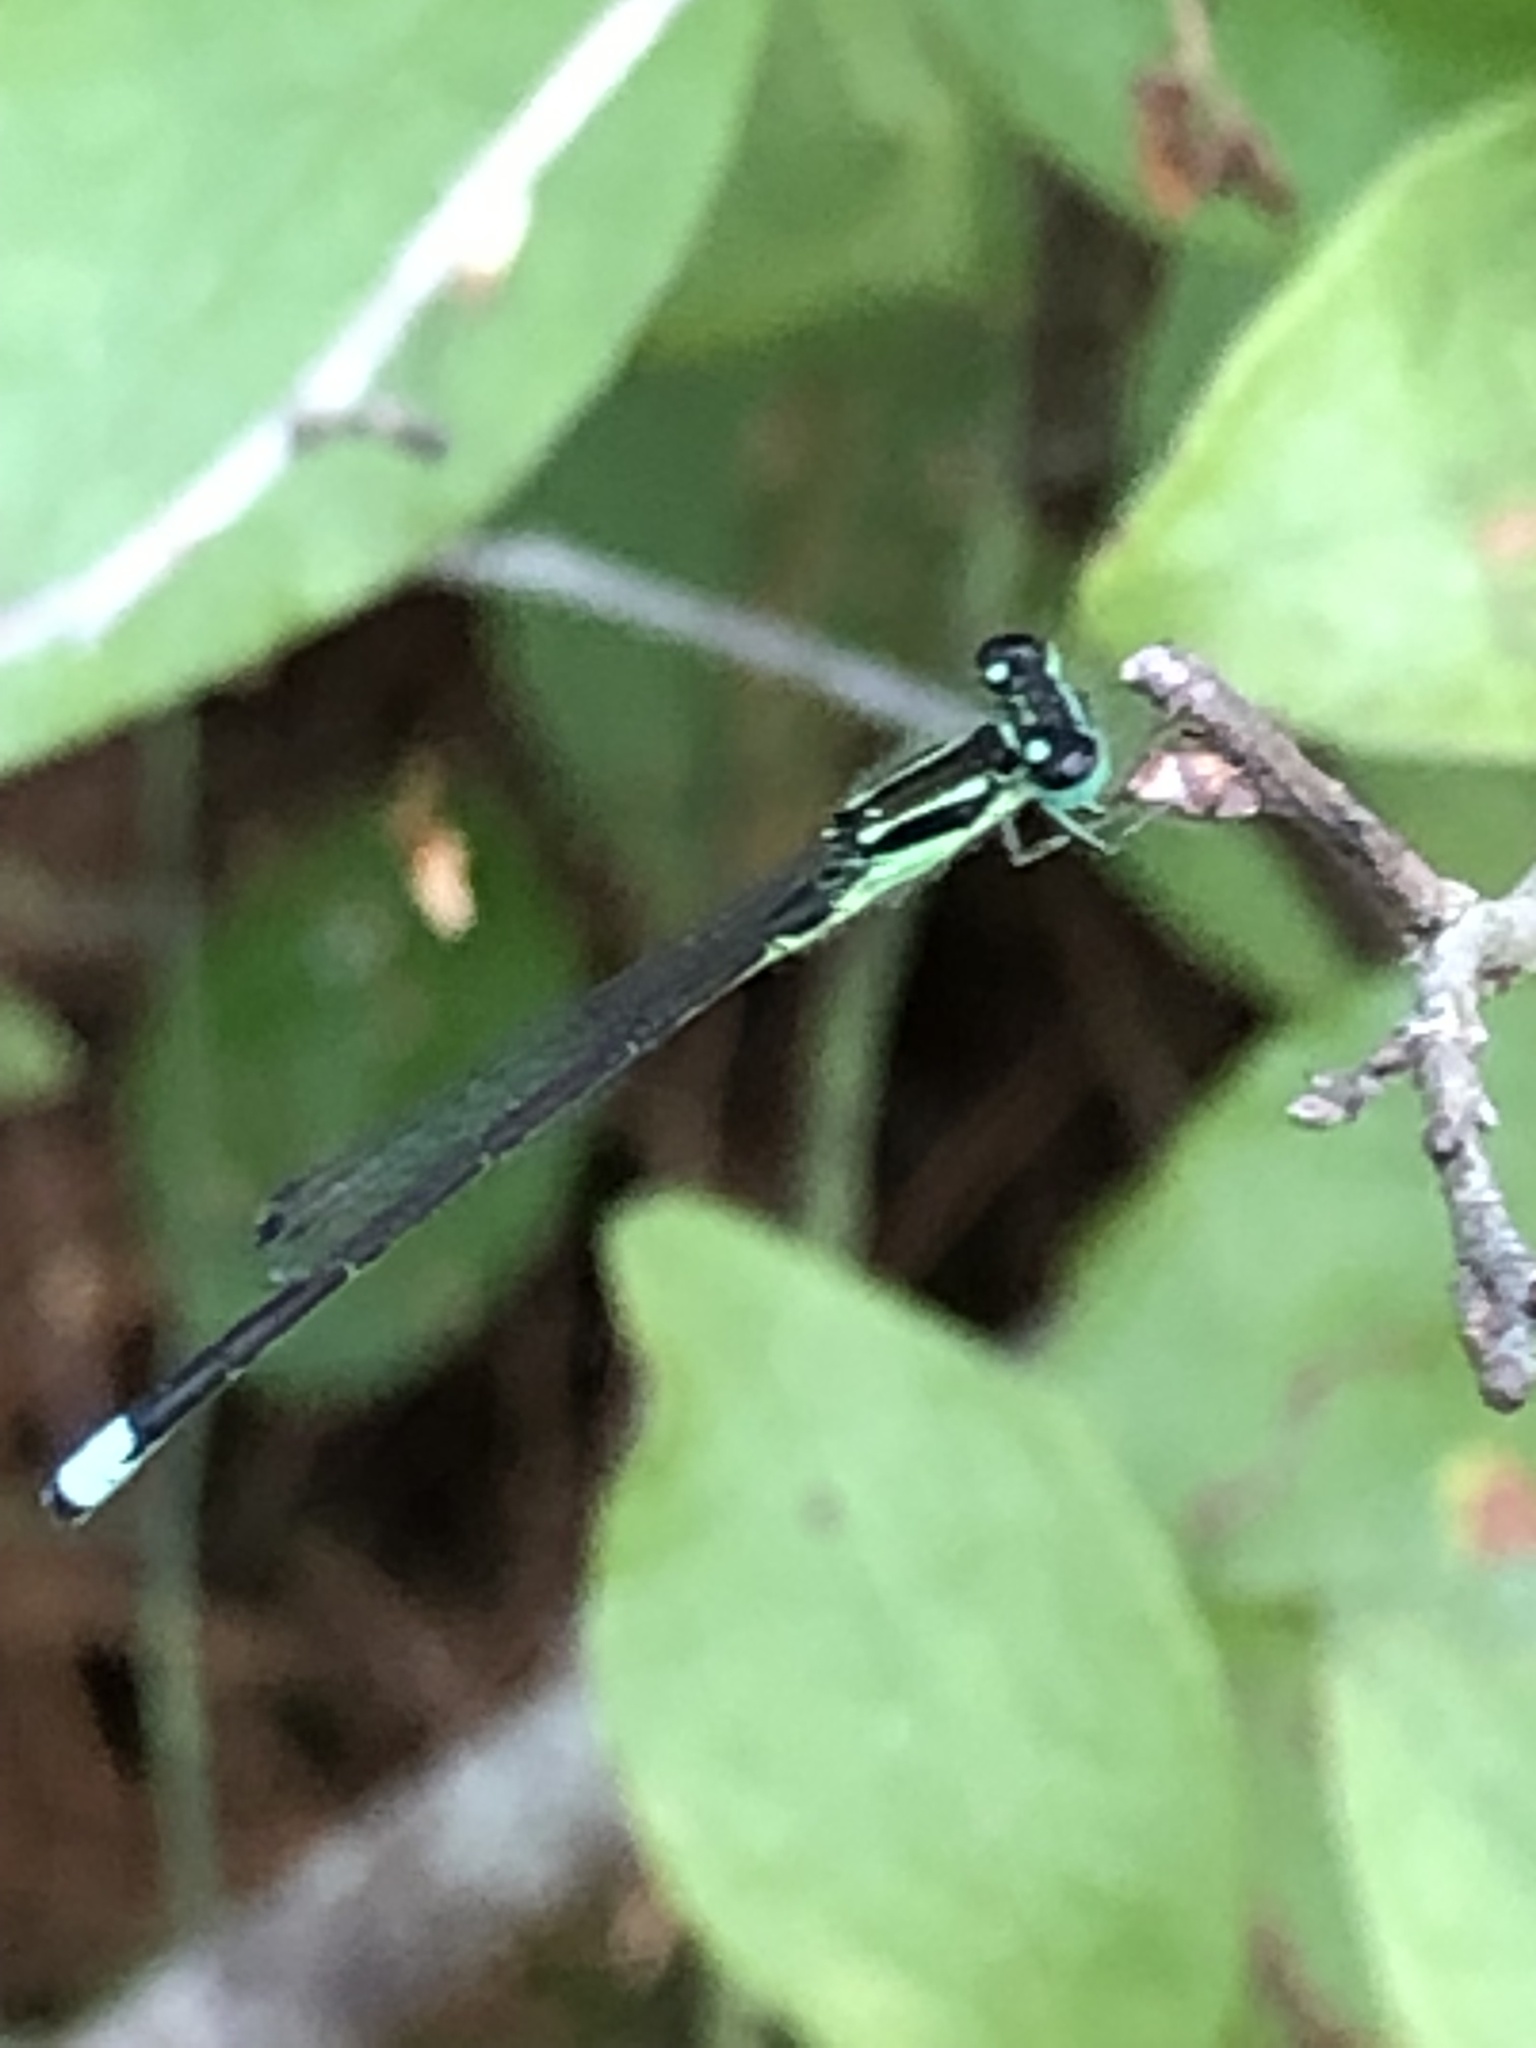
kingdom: Animalia
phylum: Arthropoda
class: Insecta
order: Odonata
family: Coenagrionidae
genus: Ischnura
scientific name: Ischnura verticalis
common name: Eastern forktail
